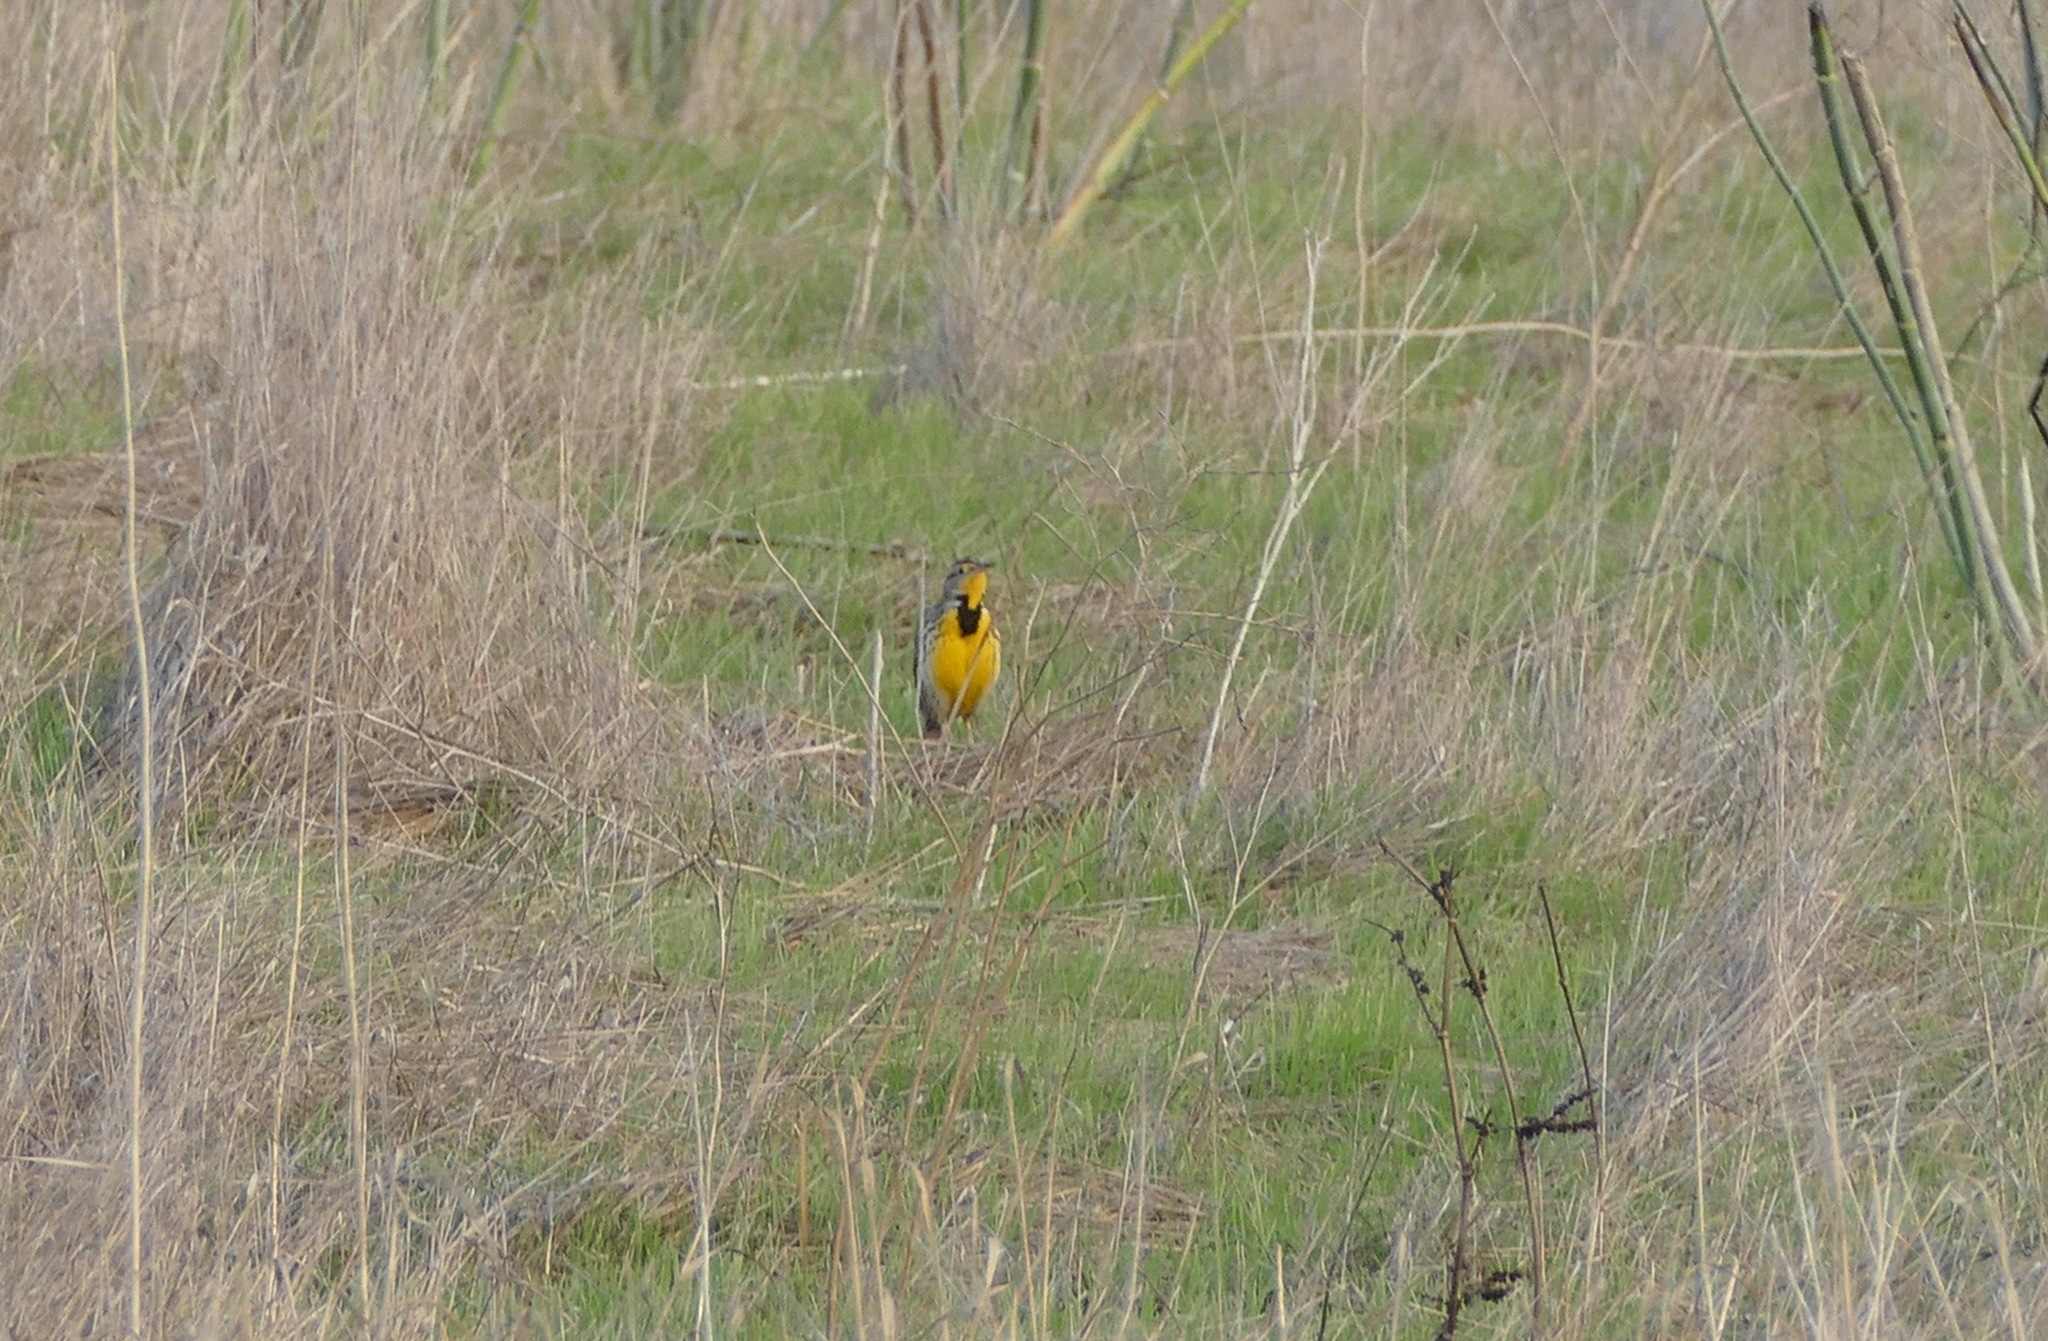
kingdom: Animalia
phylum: Chordata
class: Aves
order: Passeriformes
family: Icteridae
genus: Sturnella
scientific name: Sturnella neglecta
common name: Western meadowlark
